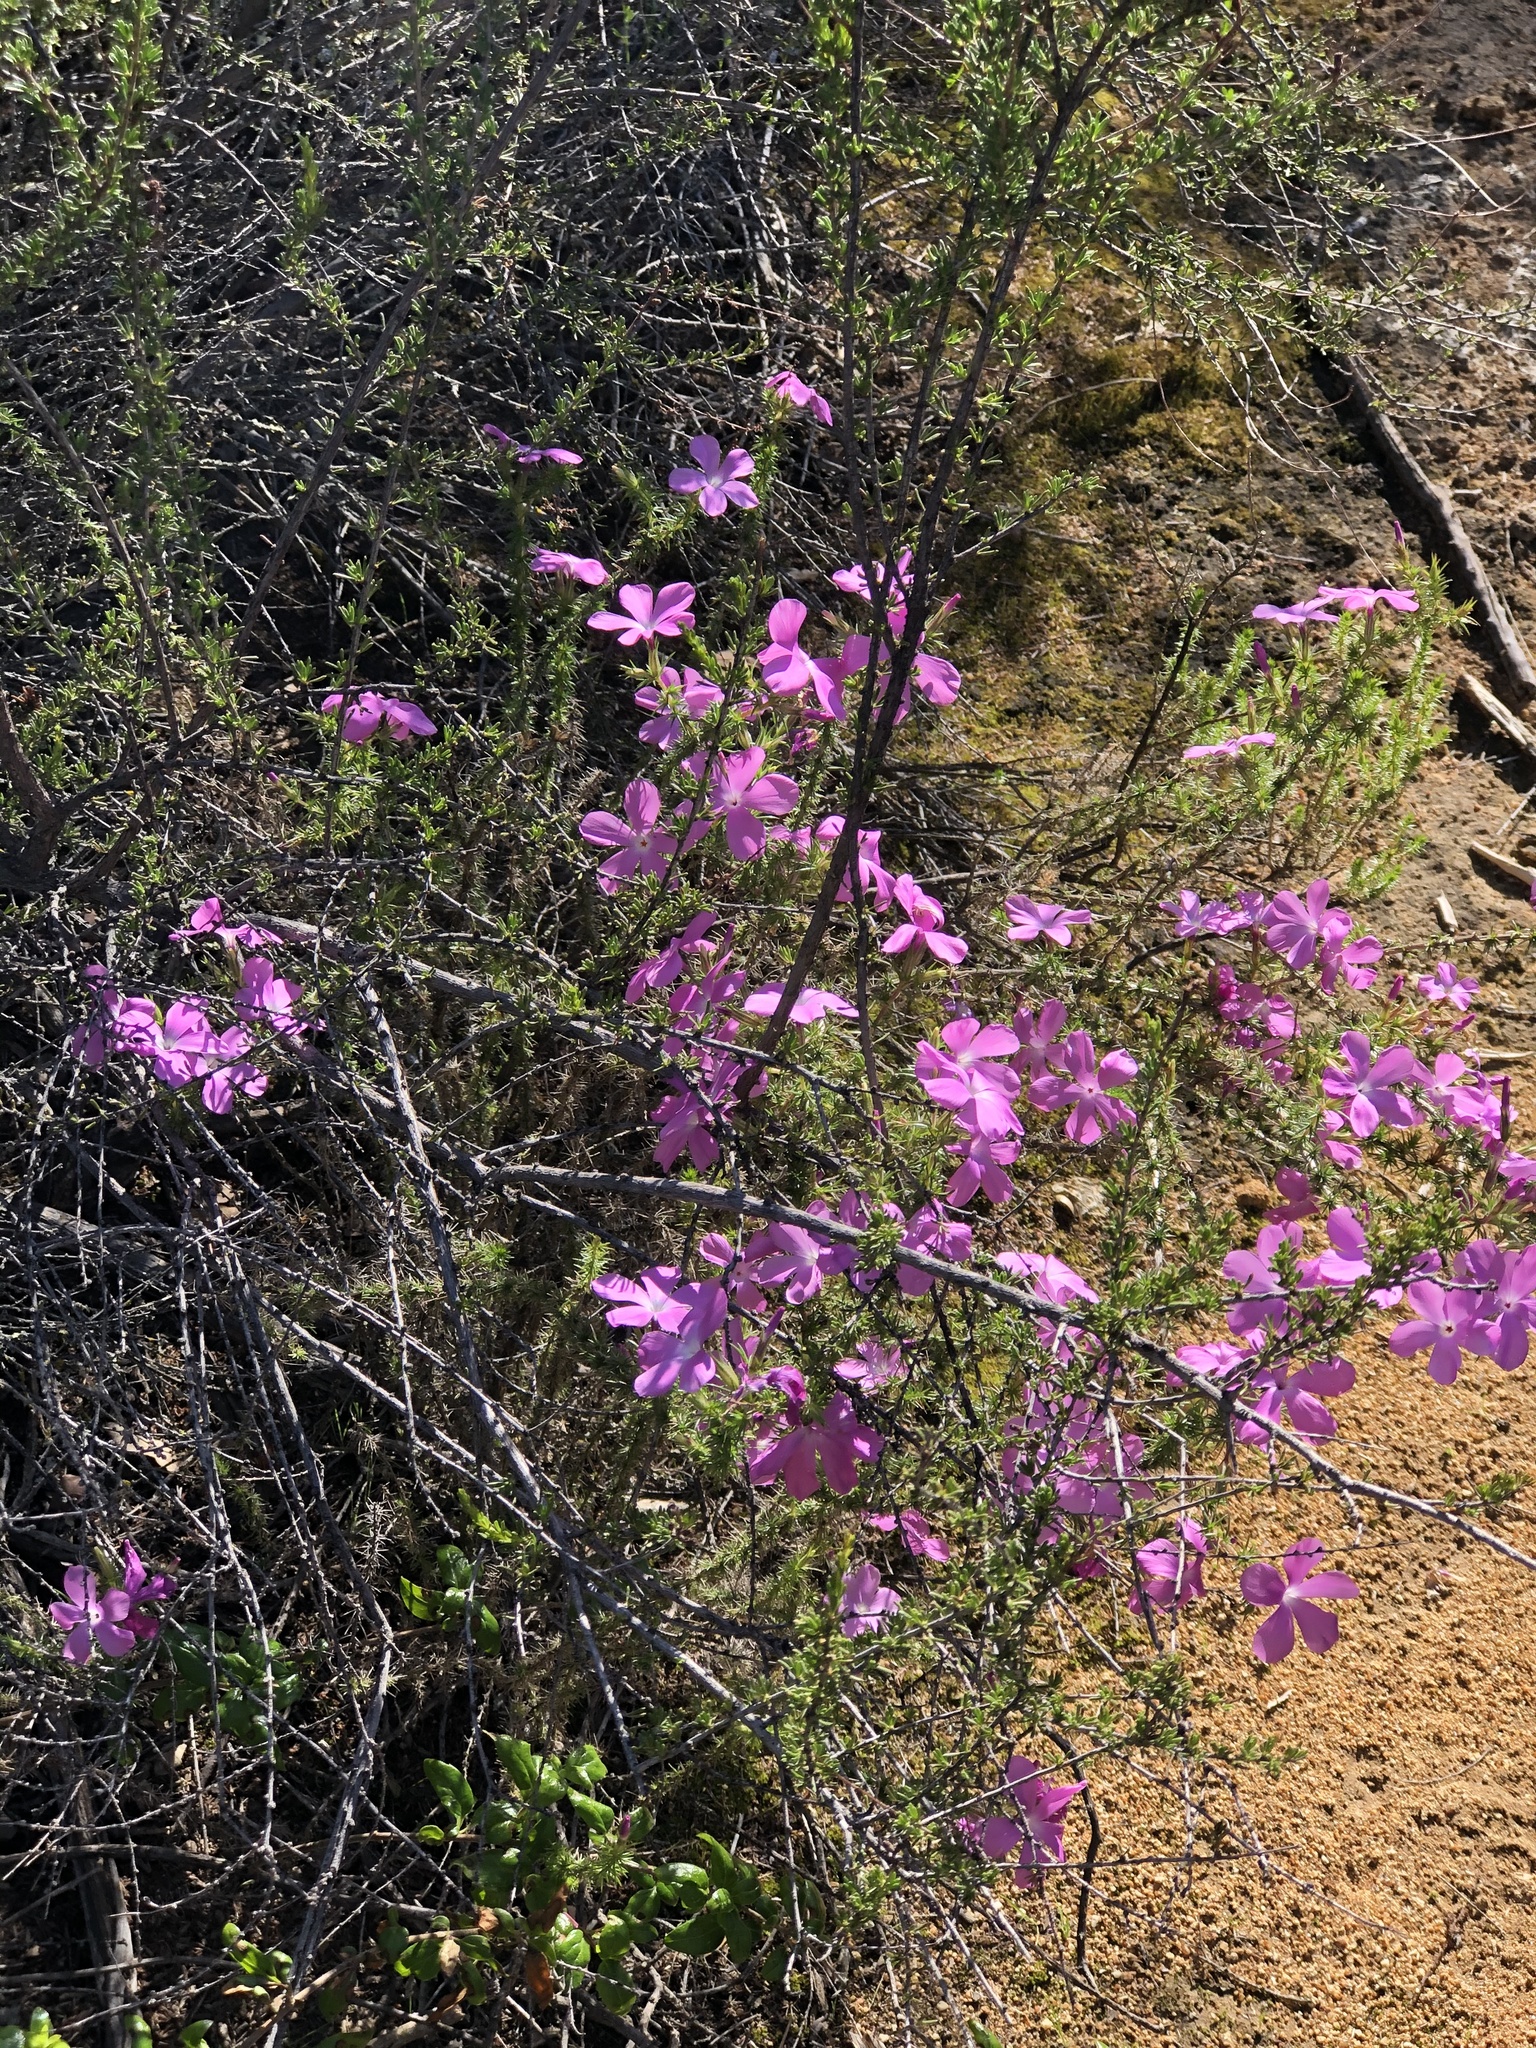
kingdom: Plantae
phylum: Tracheophyta
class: Magnoliopsida
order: Ericales
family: Polemoniaceae
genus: Linanthus
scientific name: Linanthus californicus
